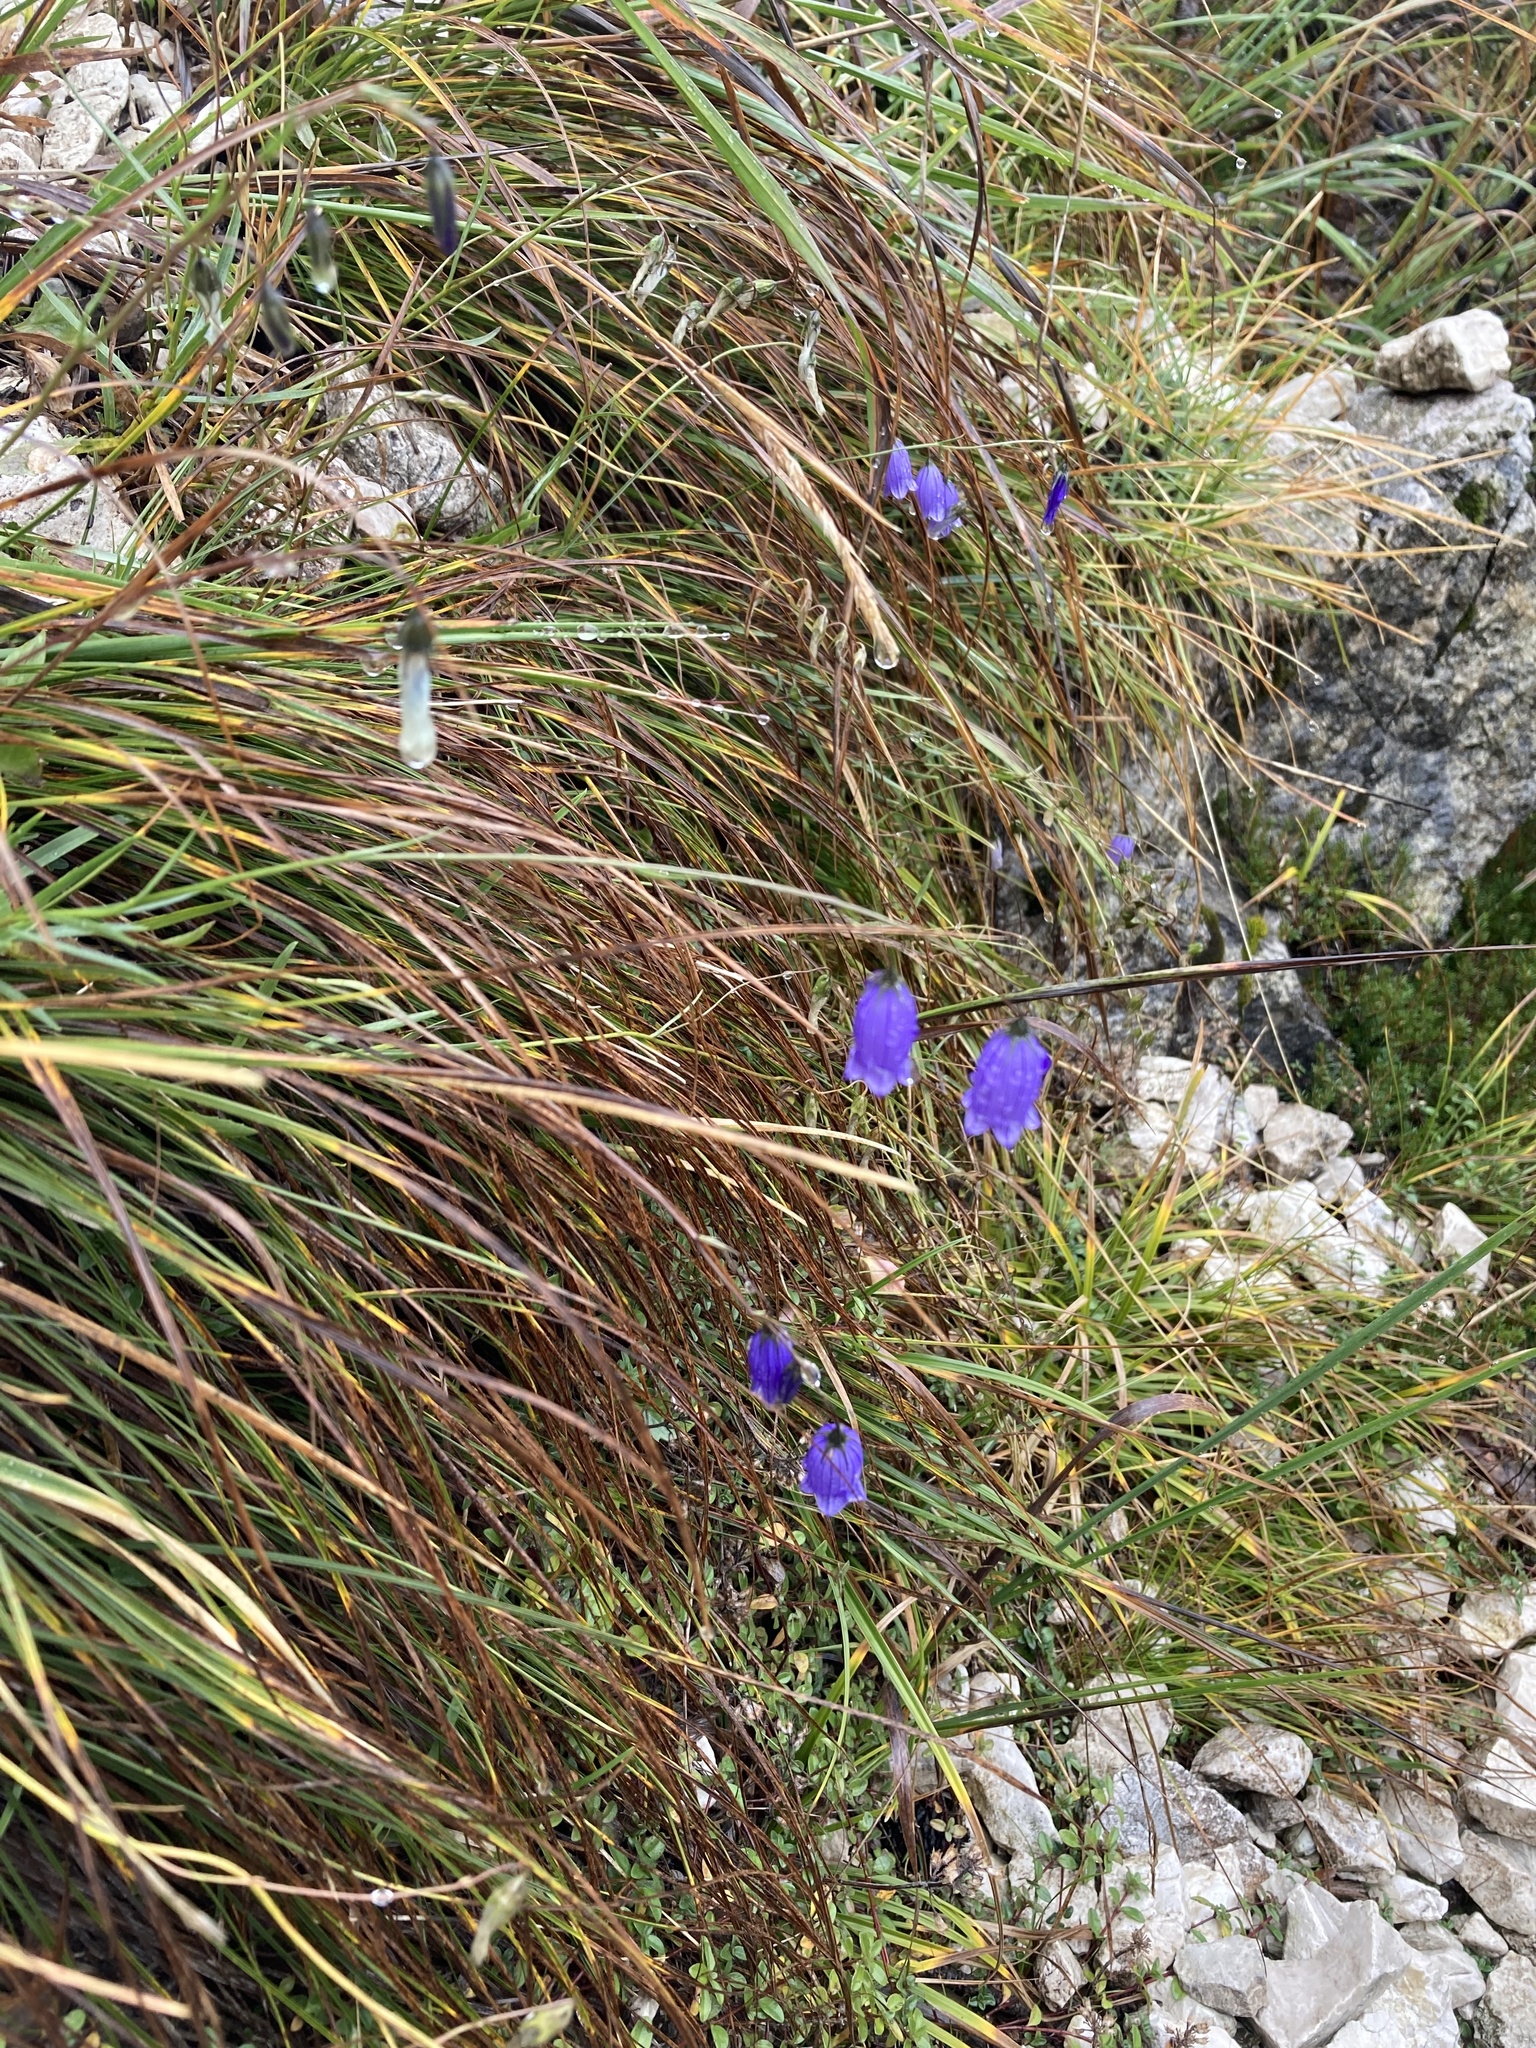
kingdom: Plantae
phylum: Tracheophyta
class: Magnoliopsida
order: Asterales
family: Campanulaceae
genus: Campanula
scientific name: Campanula cespitosa
